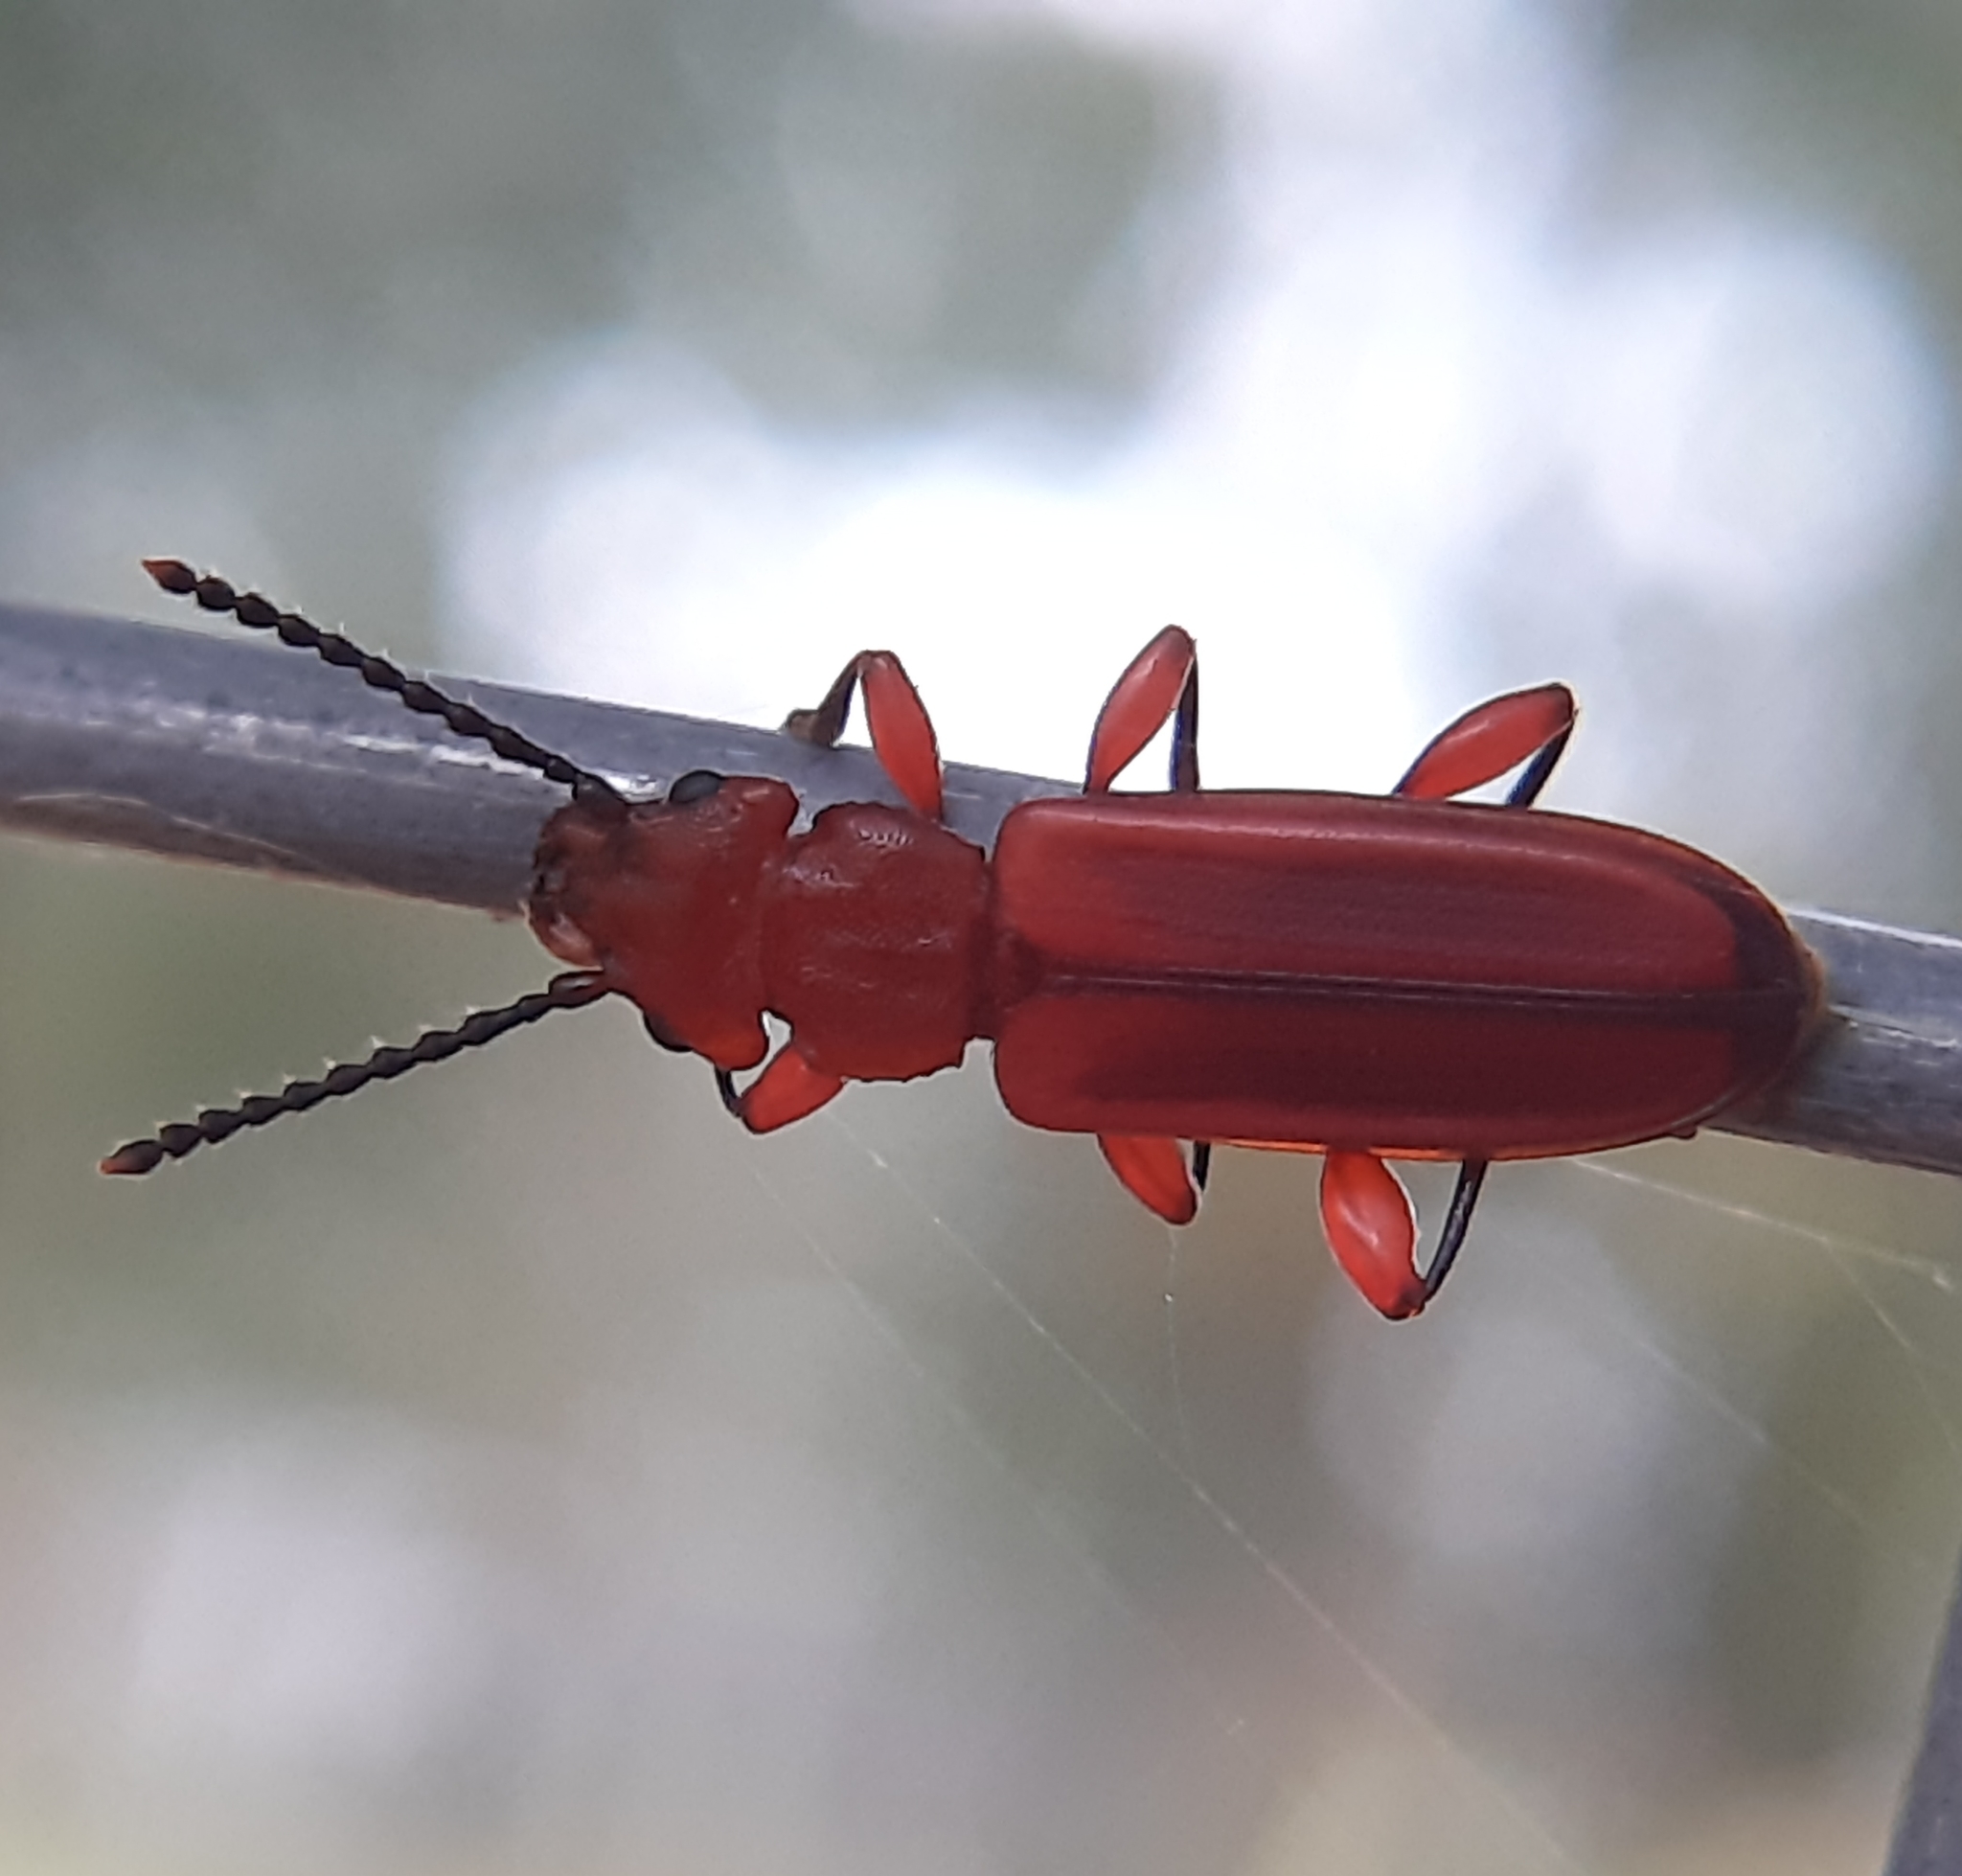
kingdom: Animalia
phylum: Arthropoda
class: Insecta
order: Coleoptera
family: Cucujidae
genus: Cucujus
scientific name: Cucujus clavipes
